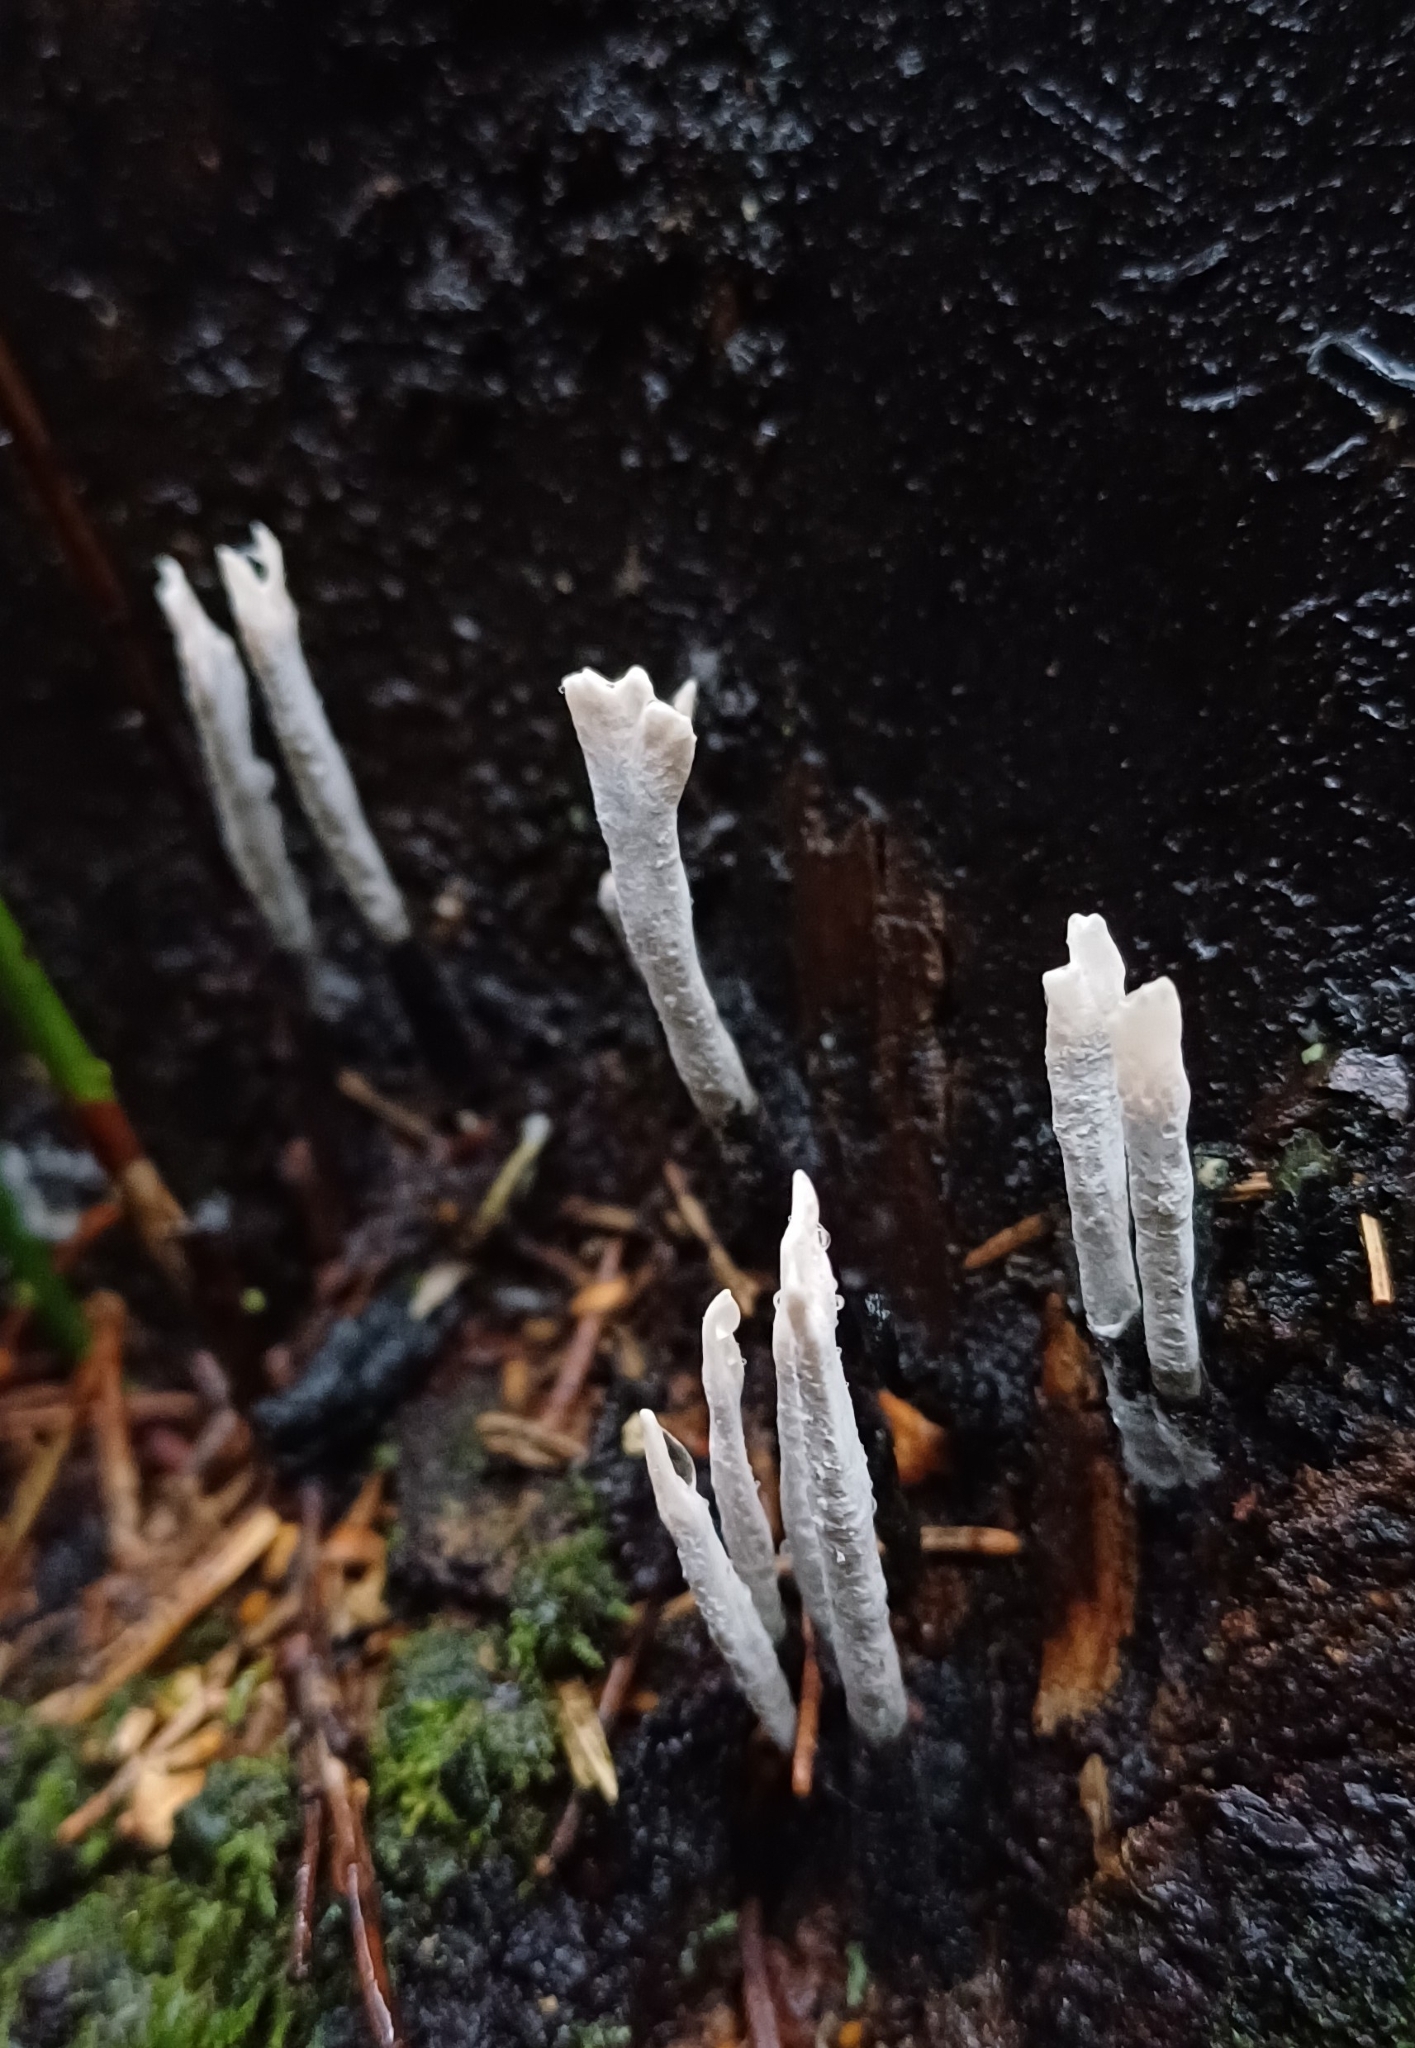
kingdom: Fungi
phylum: Ascomycota
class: Sordariomycetes
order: Xylariales
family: Xylariaceae
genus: Xylaria
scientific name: Xylaria hypoxylon
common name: Candle-snuff fungus
